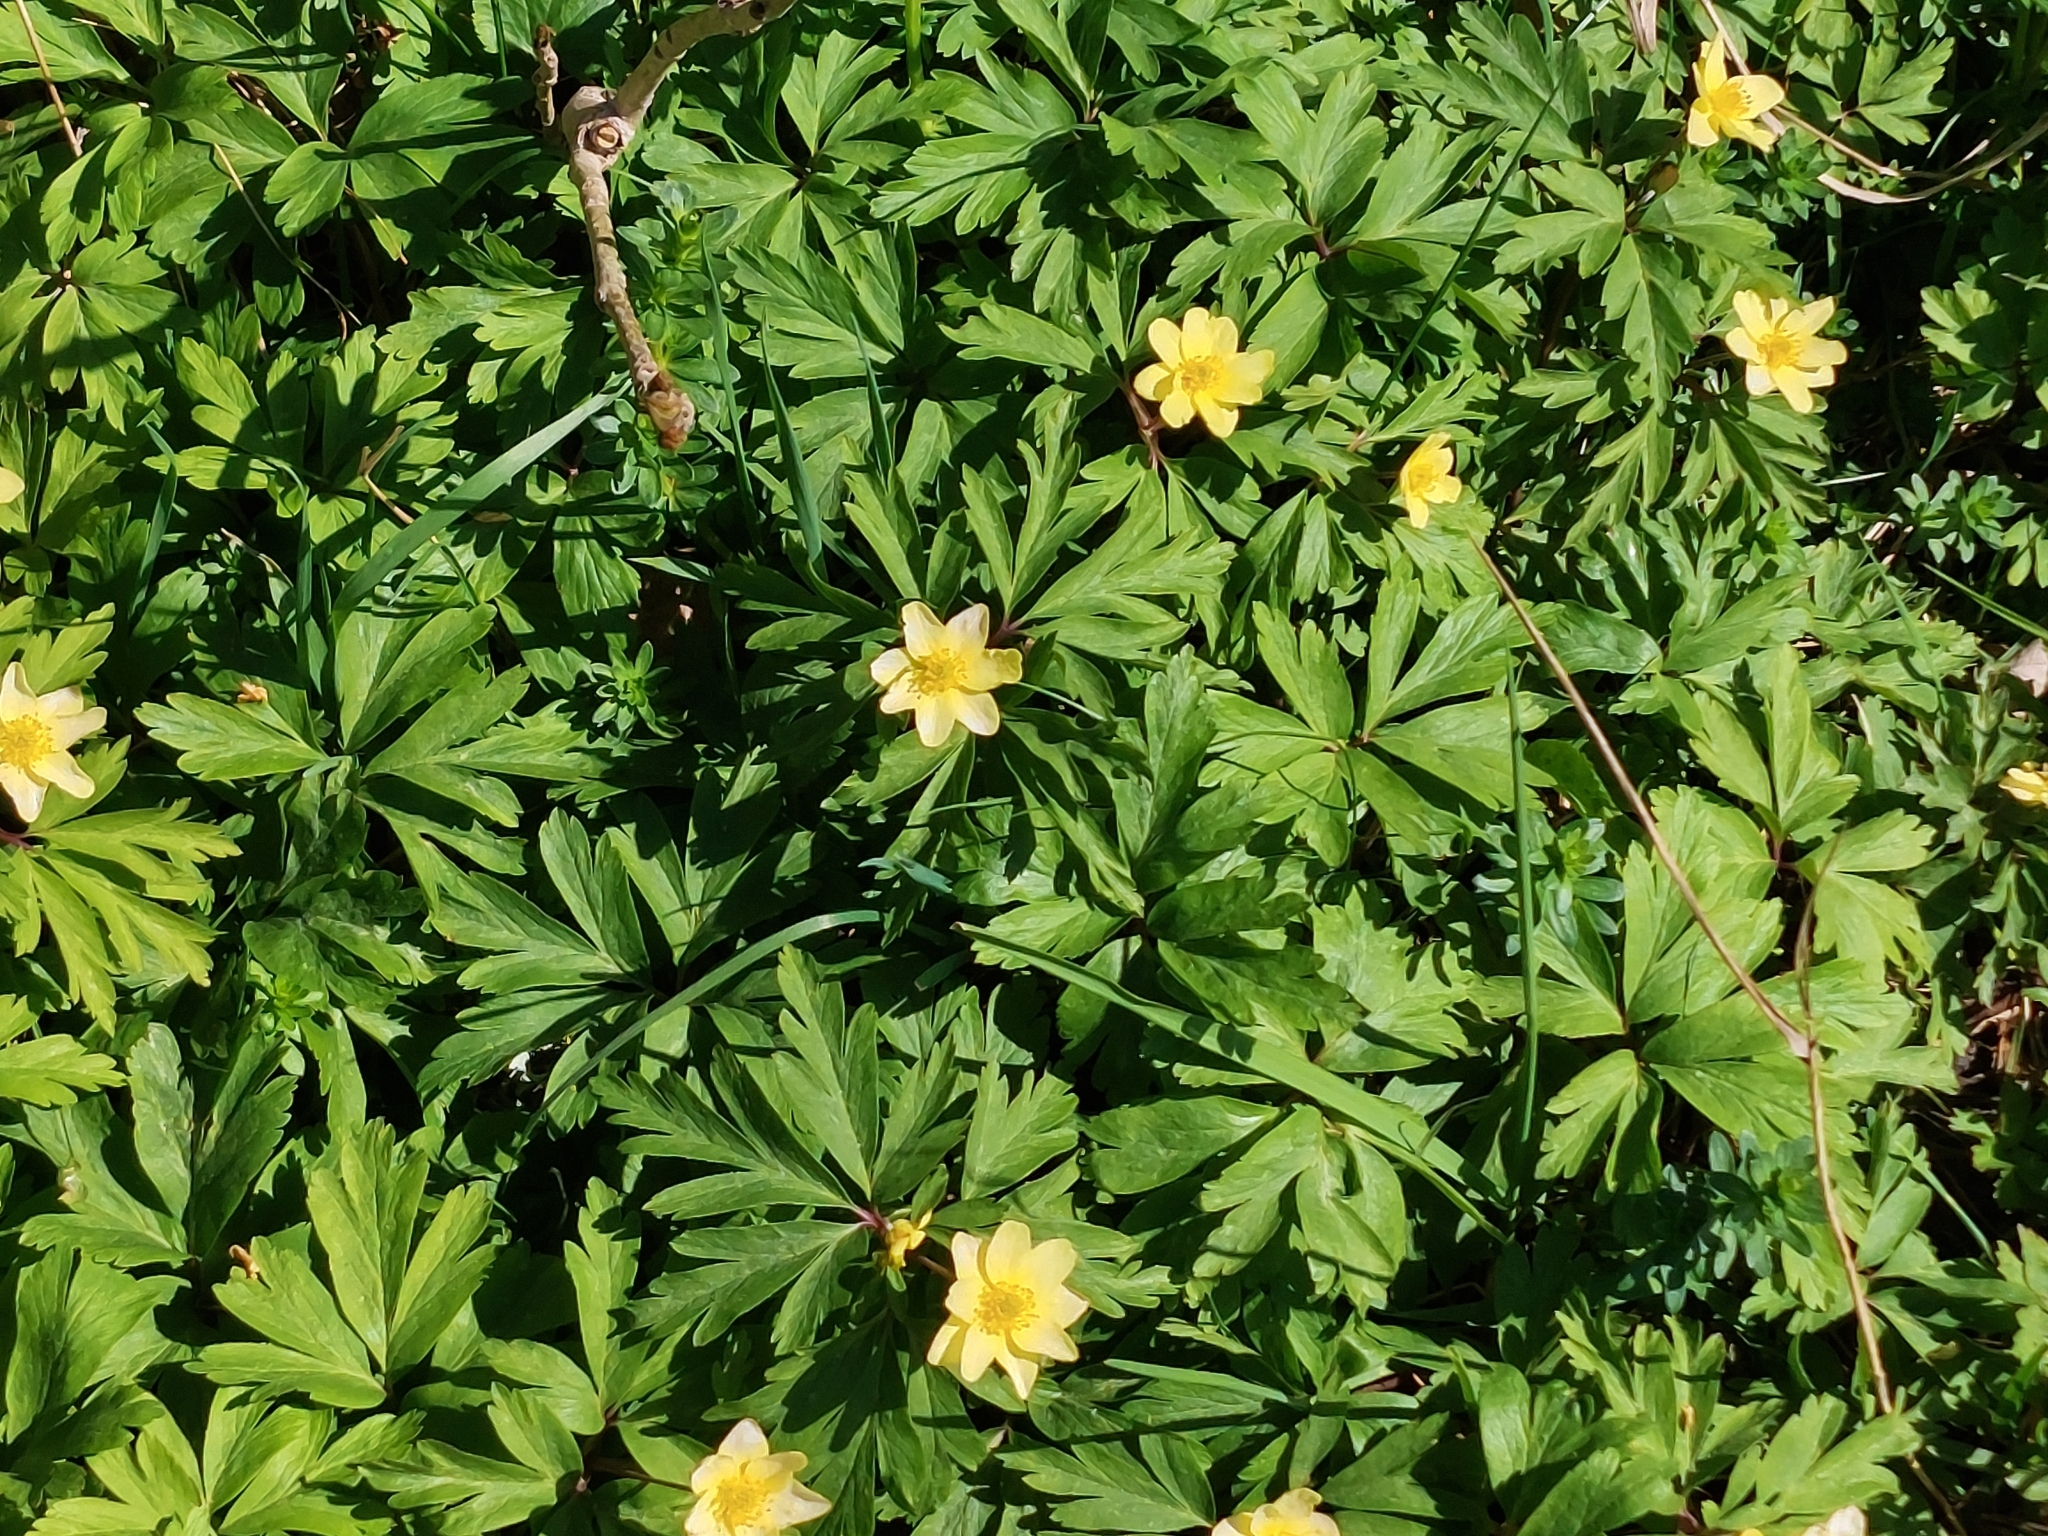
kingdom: Plantae
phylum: Tracheophyta
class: Magnoliopsida
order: Ranunculales
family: Ranunculaceae
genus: Anemone
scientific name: Anemone lipsiensis
